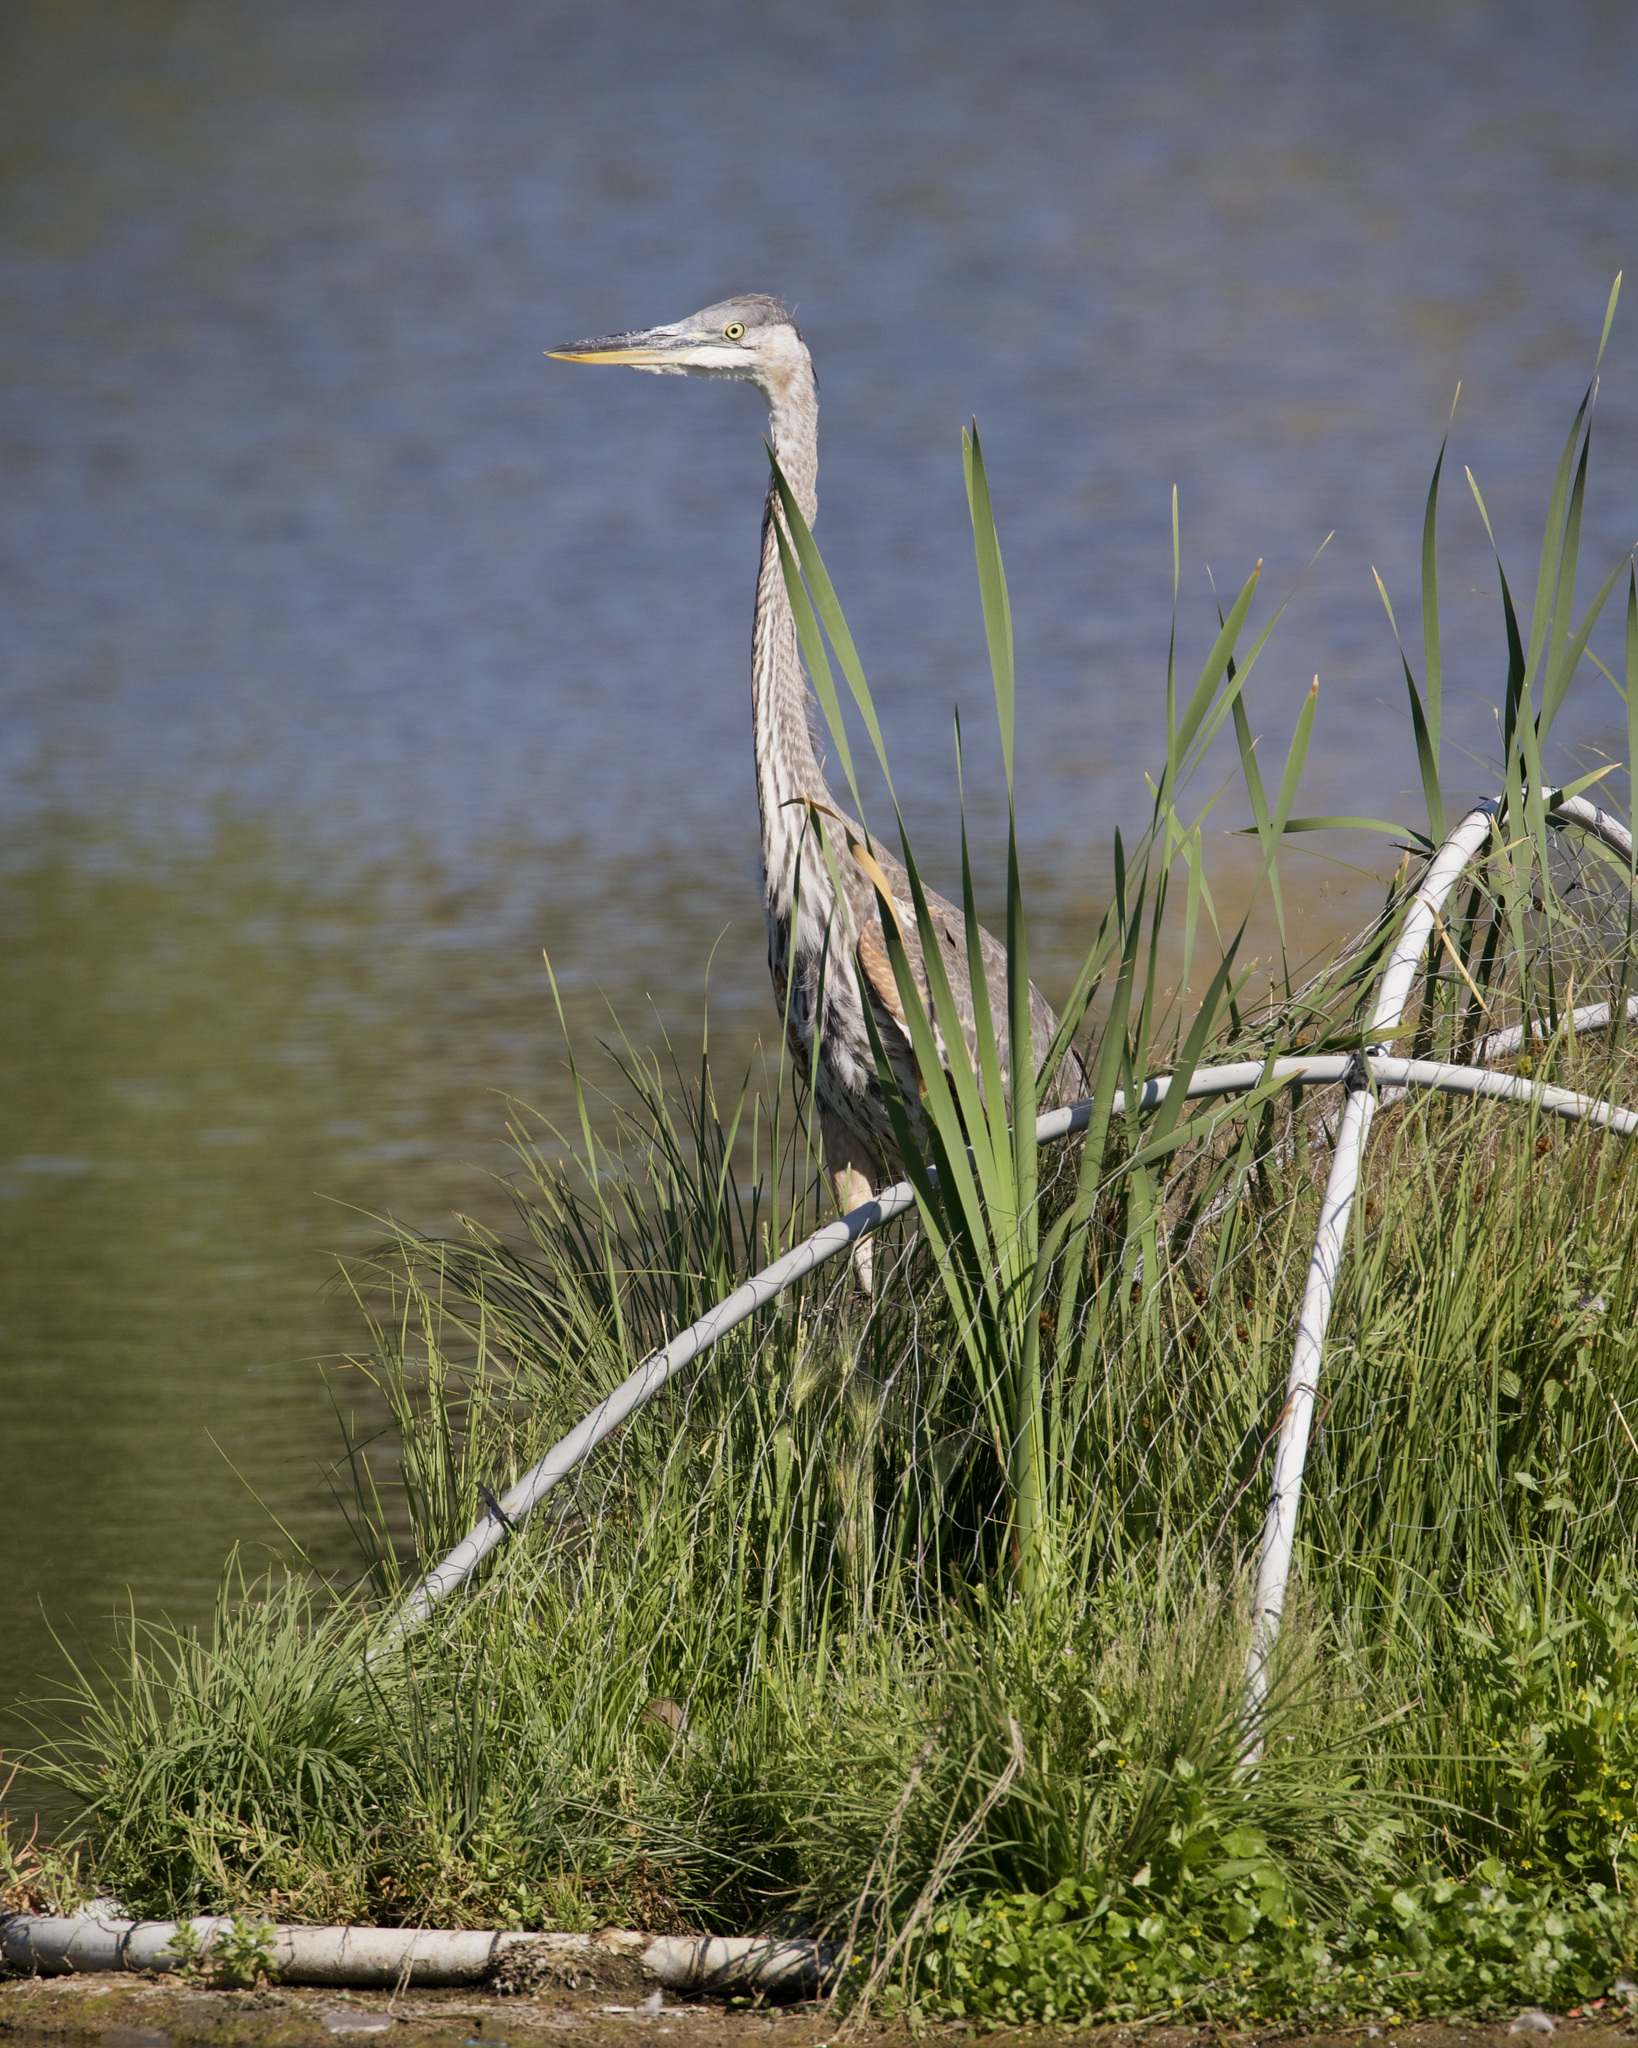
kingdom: Animalia
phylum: Chordata
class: Aves
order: Pelecaniformes
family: Ardeidae
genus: Ardea
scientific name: Ardea herodias
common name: Great blue heron
